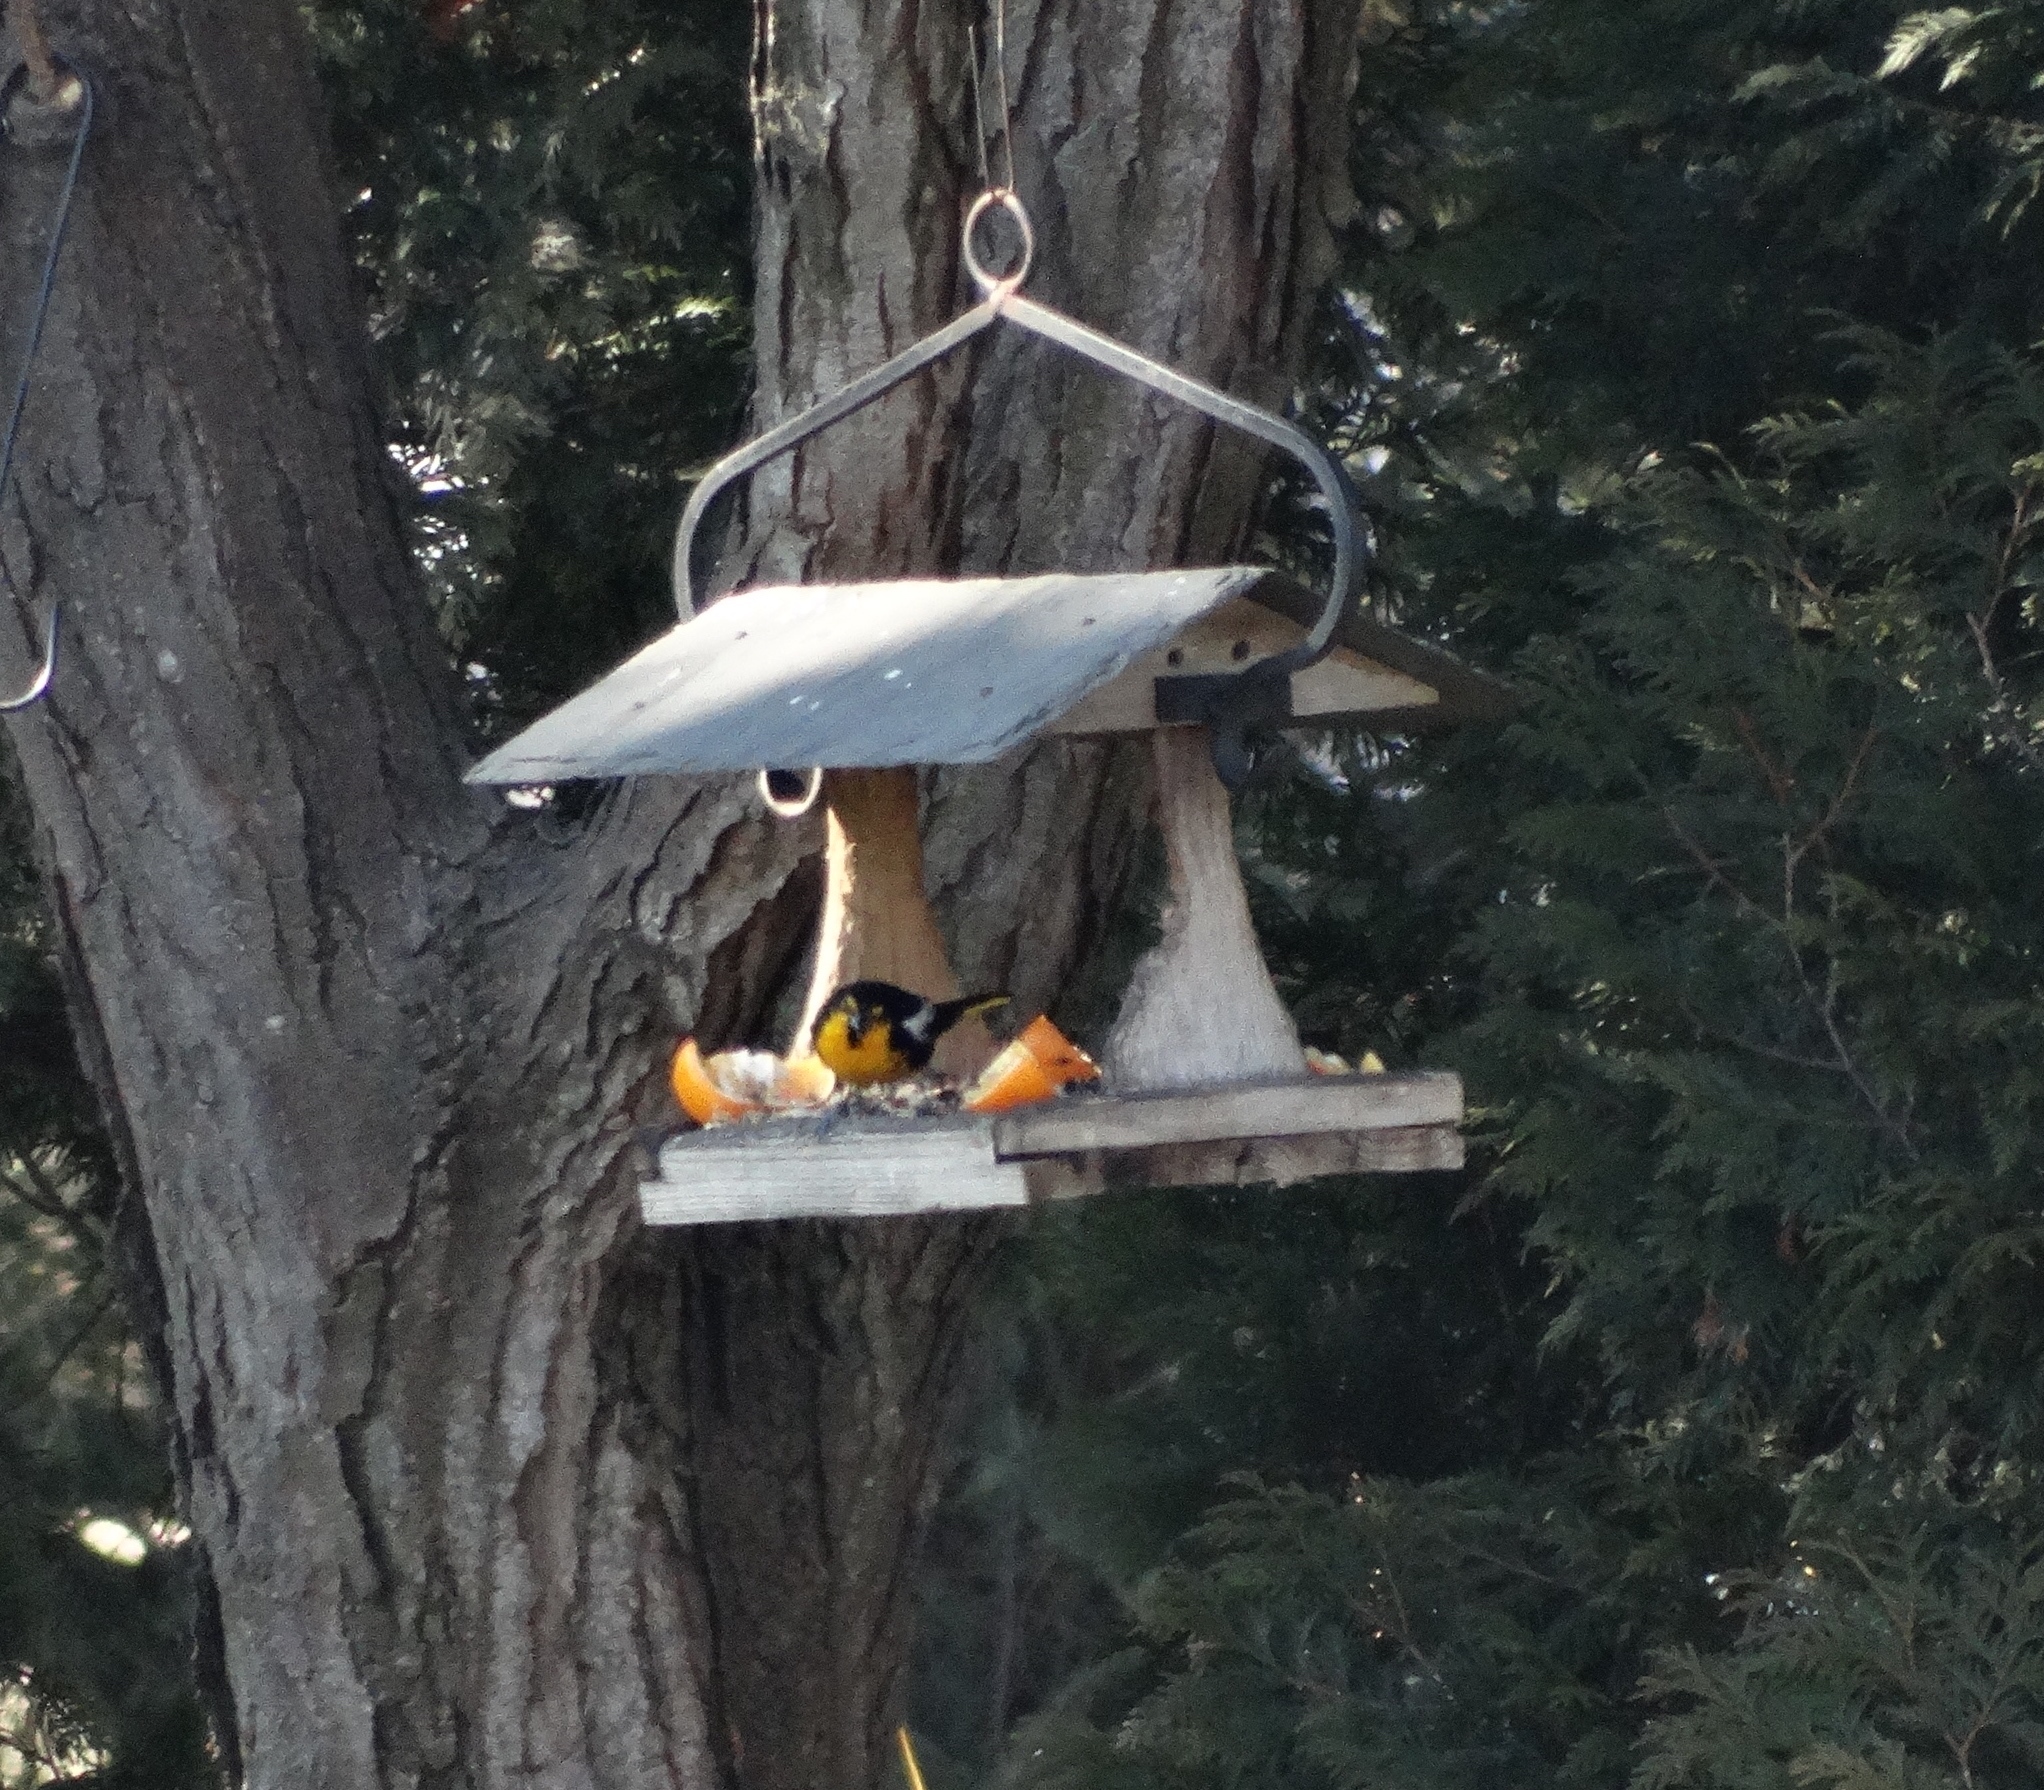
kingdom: Animalia
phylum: Chordata
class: Aves
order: Passeriformes
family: Icteridae
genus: Icterus
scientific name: Icterus abeillei
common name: Black-backed oriole
